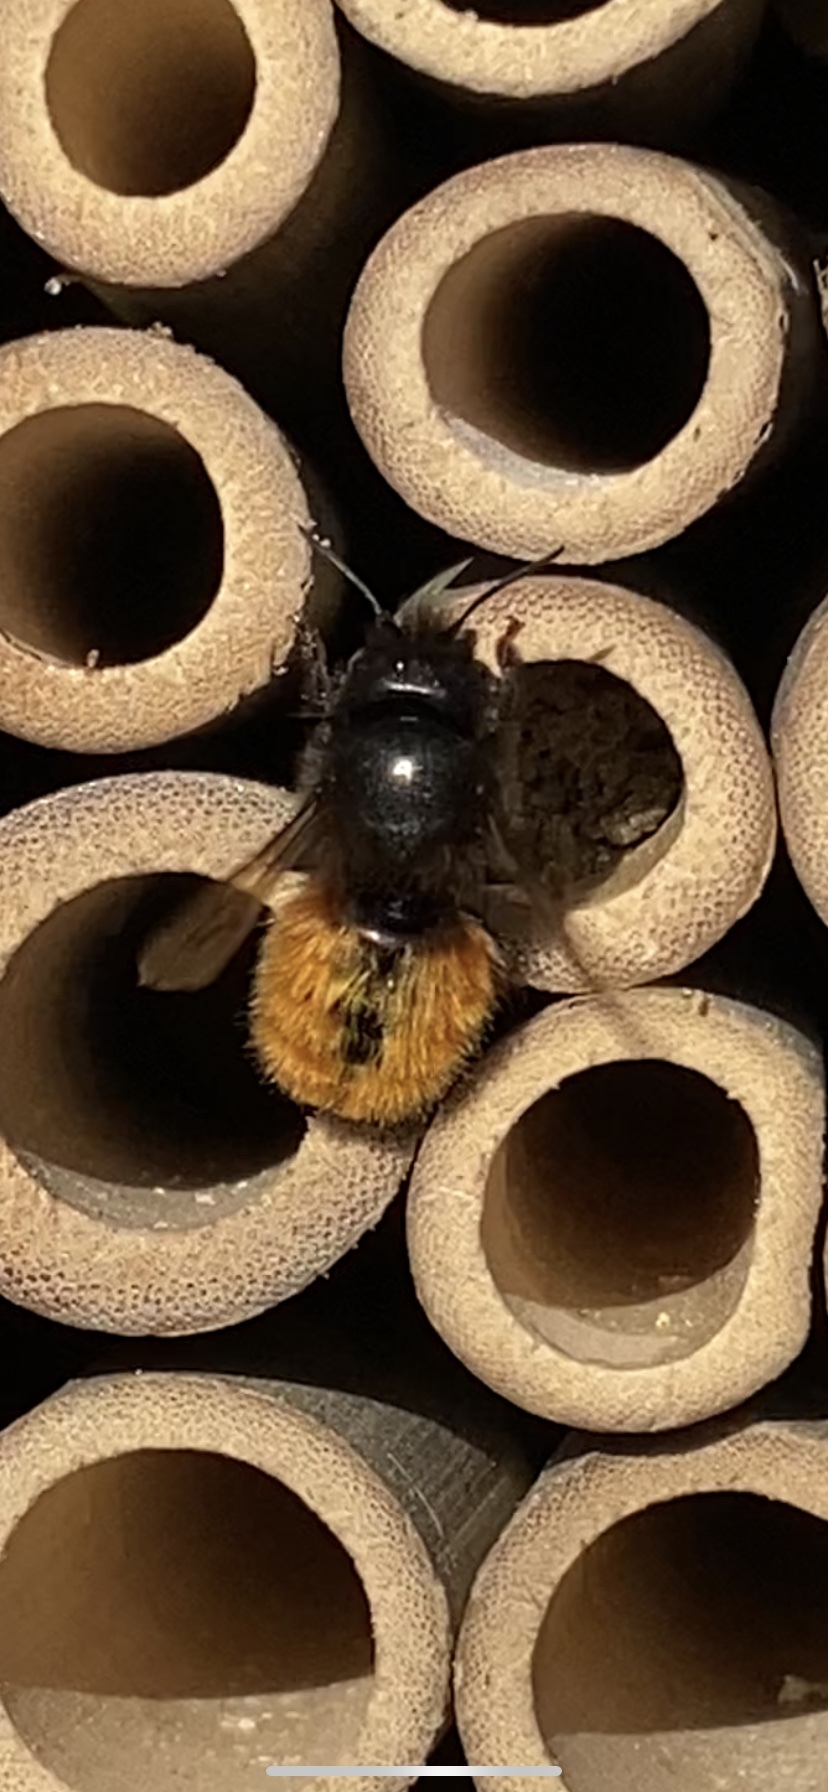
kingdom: Animalia
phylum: Arthropoda
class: Insecta
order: Hymenoptera
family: Megachilidae
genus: Osmia
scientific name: Osmia cornuta
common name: Mason bee
